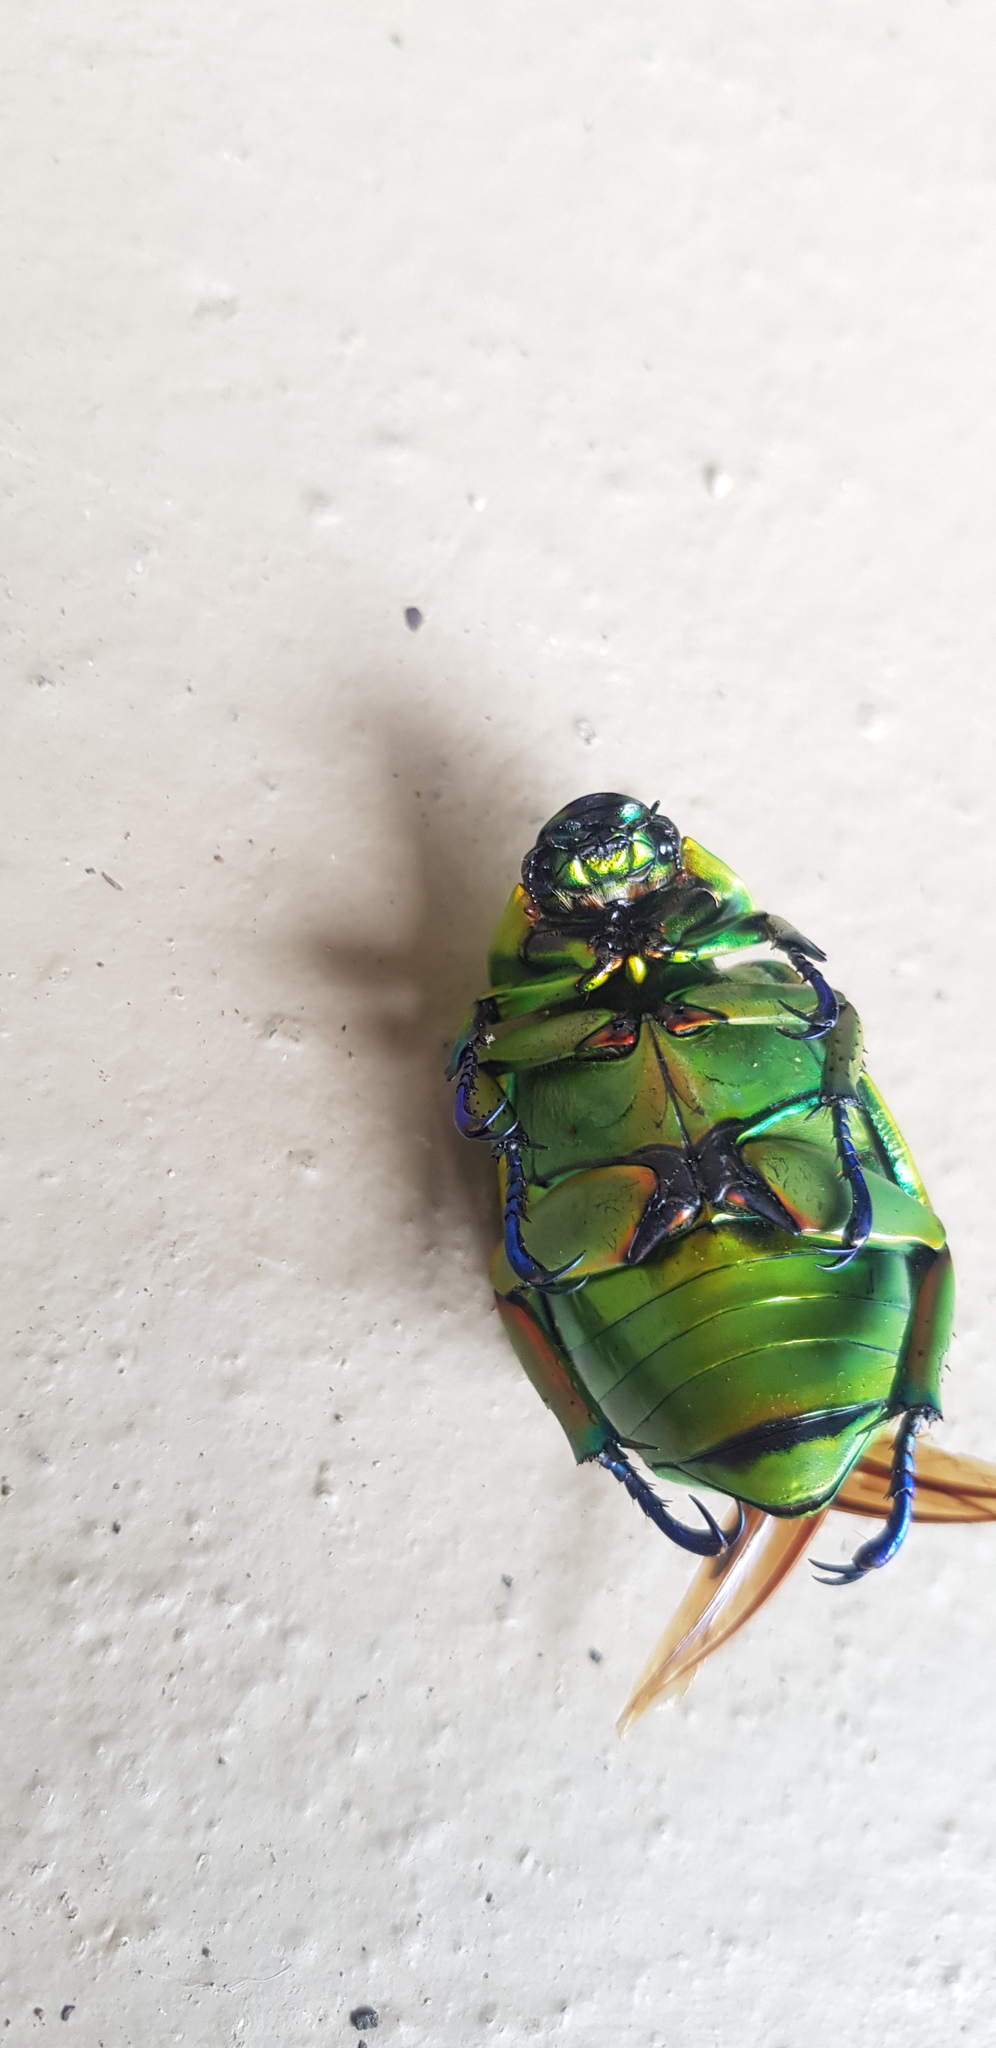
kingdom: Animalia
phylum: Arthropoda
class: Insecta
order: Coleoptera
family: Scarabaeidae
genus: Chrysina
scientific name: Chrysina macropus
